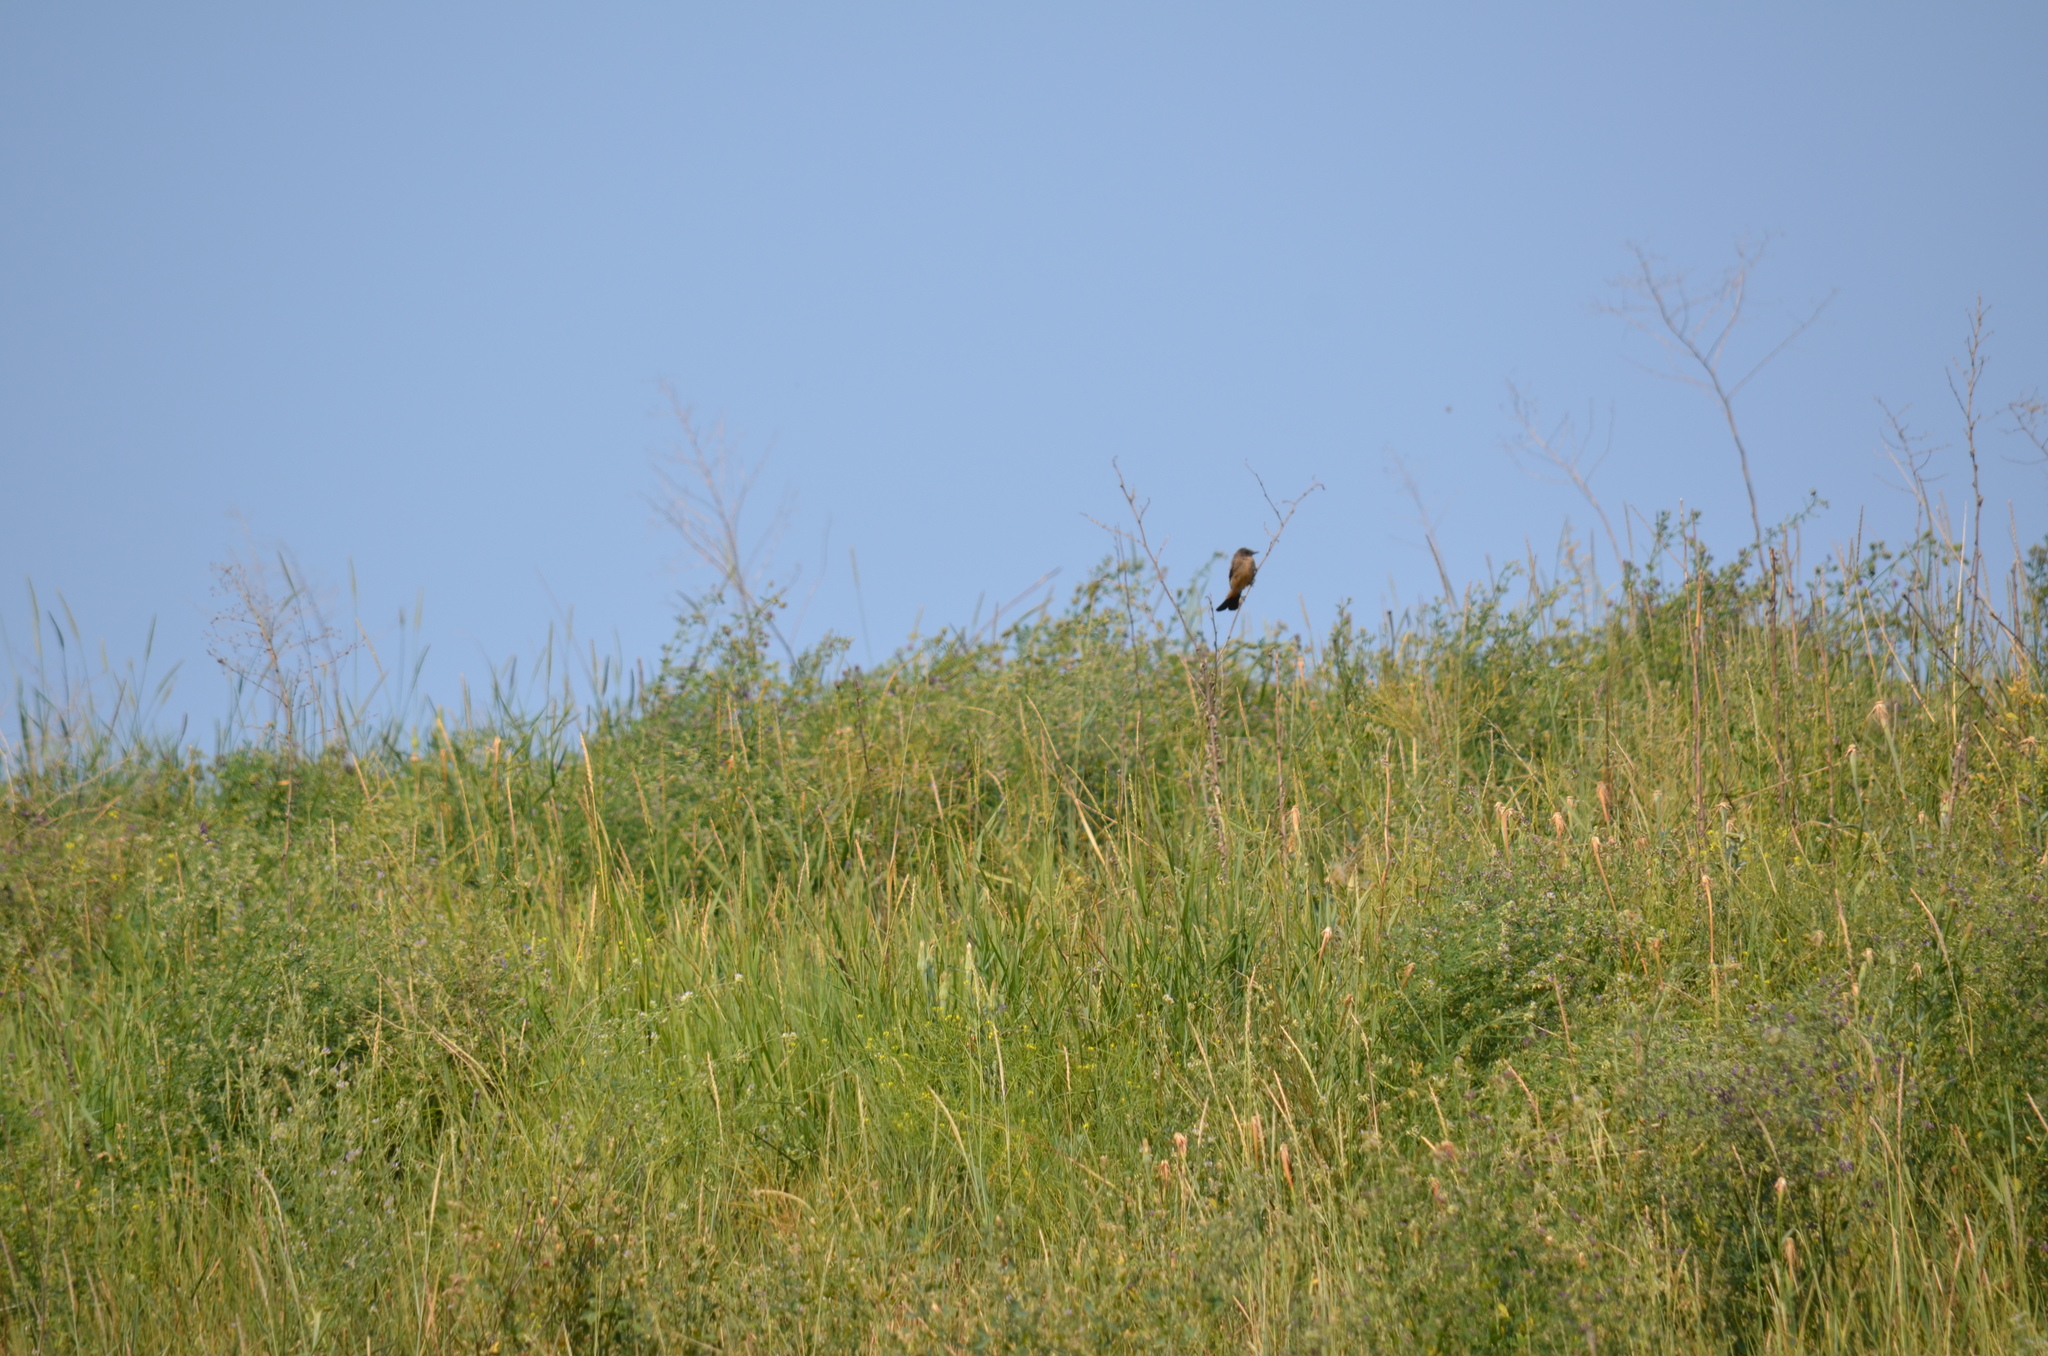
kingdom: Animalia
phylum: Chordata
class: Aves
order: Passeriformes
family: Tyrannidae
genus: Sayornis
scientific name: Sayornis saya
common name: Say's phoebe
